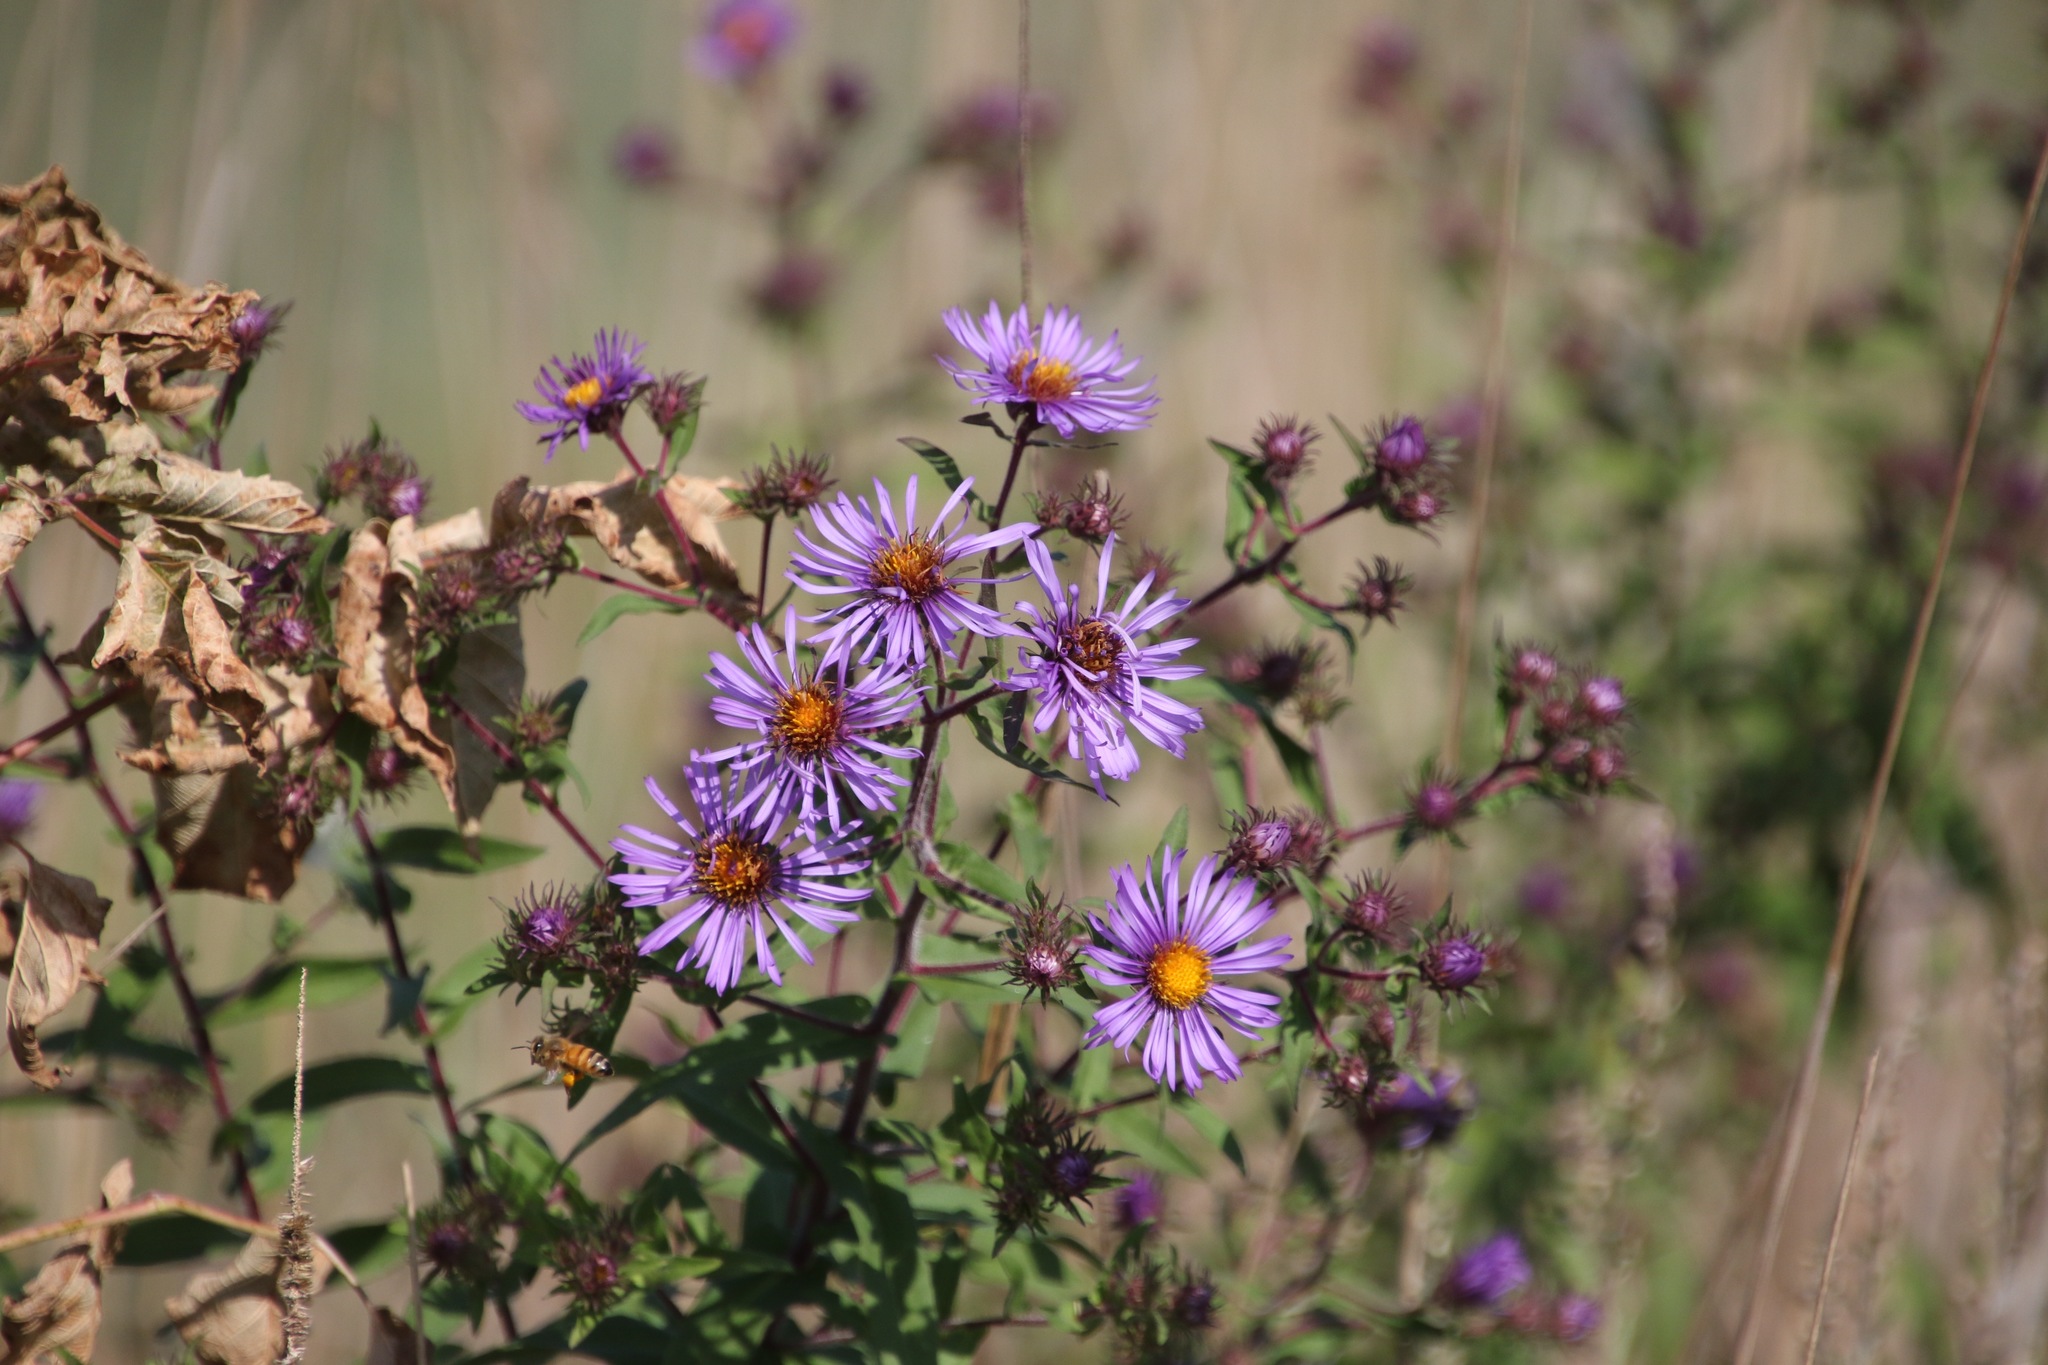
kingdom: Plantae
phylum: Tracheophyta
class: Magnoliopsida
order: Asterales
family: Asteraceae
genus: Symphyotrichum
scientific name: Symphyotrichum novae-angliae
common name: Michaelmas daisy
